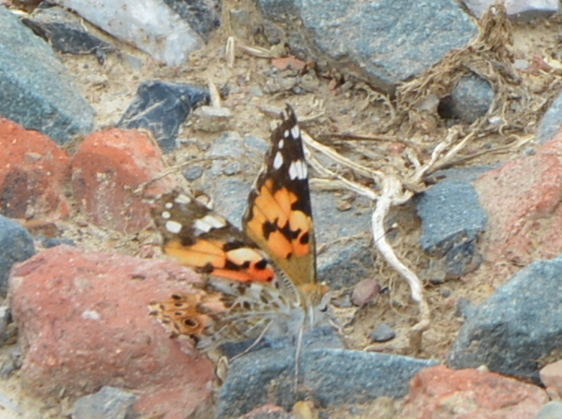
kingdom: Animalia
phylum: Arthropoda
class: Insecta
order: Lepidoptera
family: Nymphalidae
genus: Vanessa
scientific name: Vanessa cardui
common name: Painted lady
